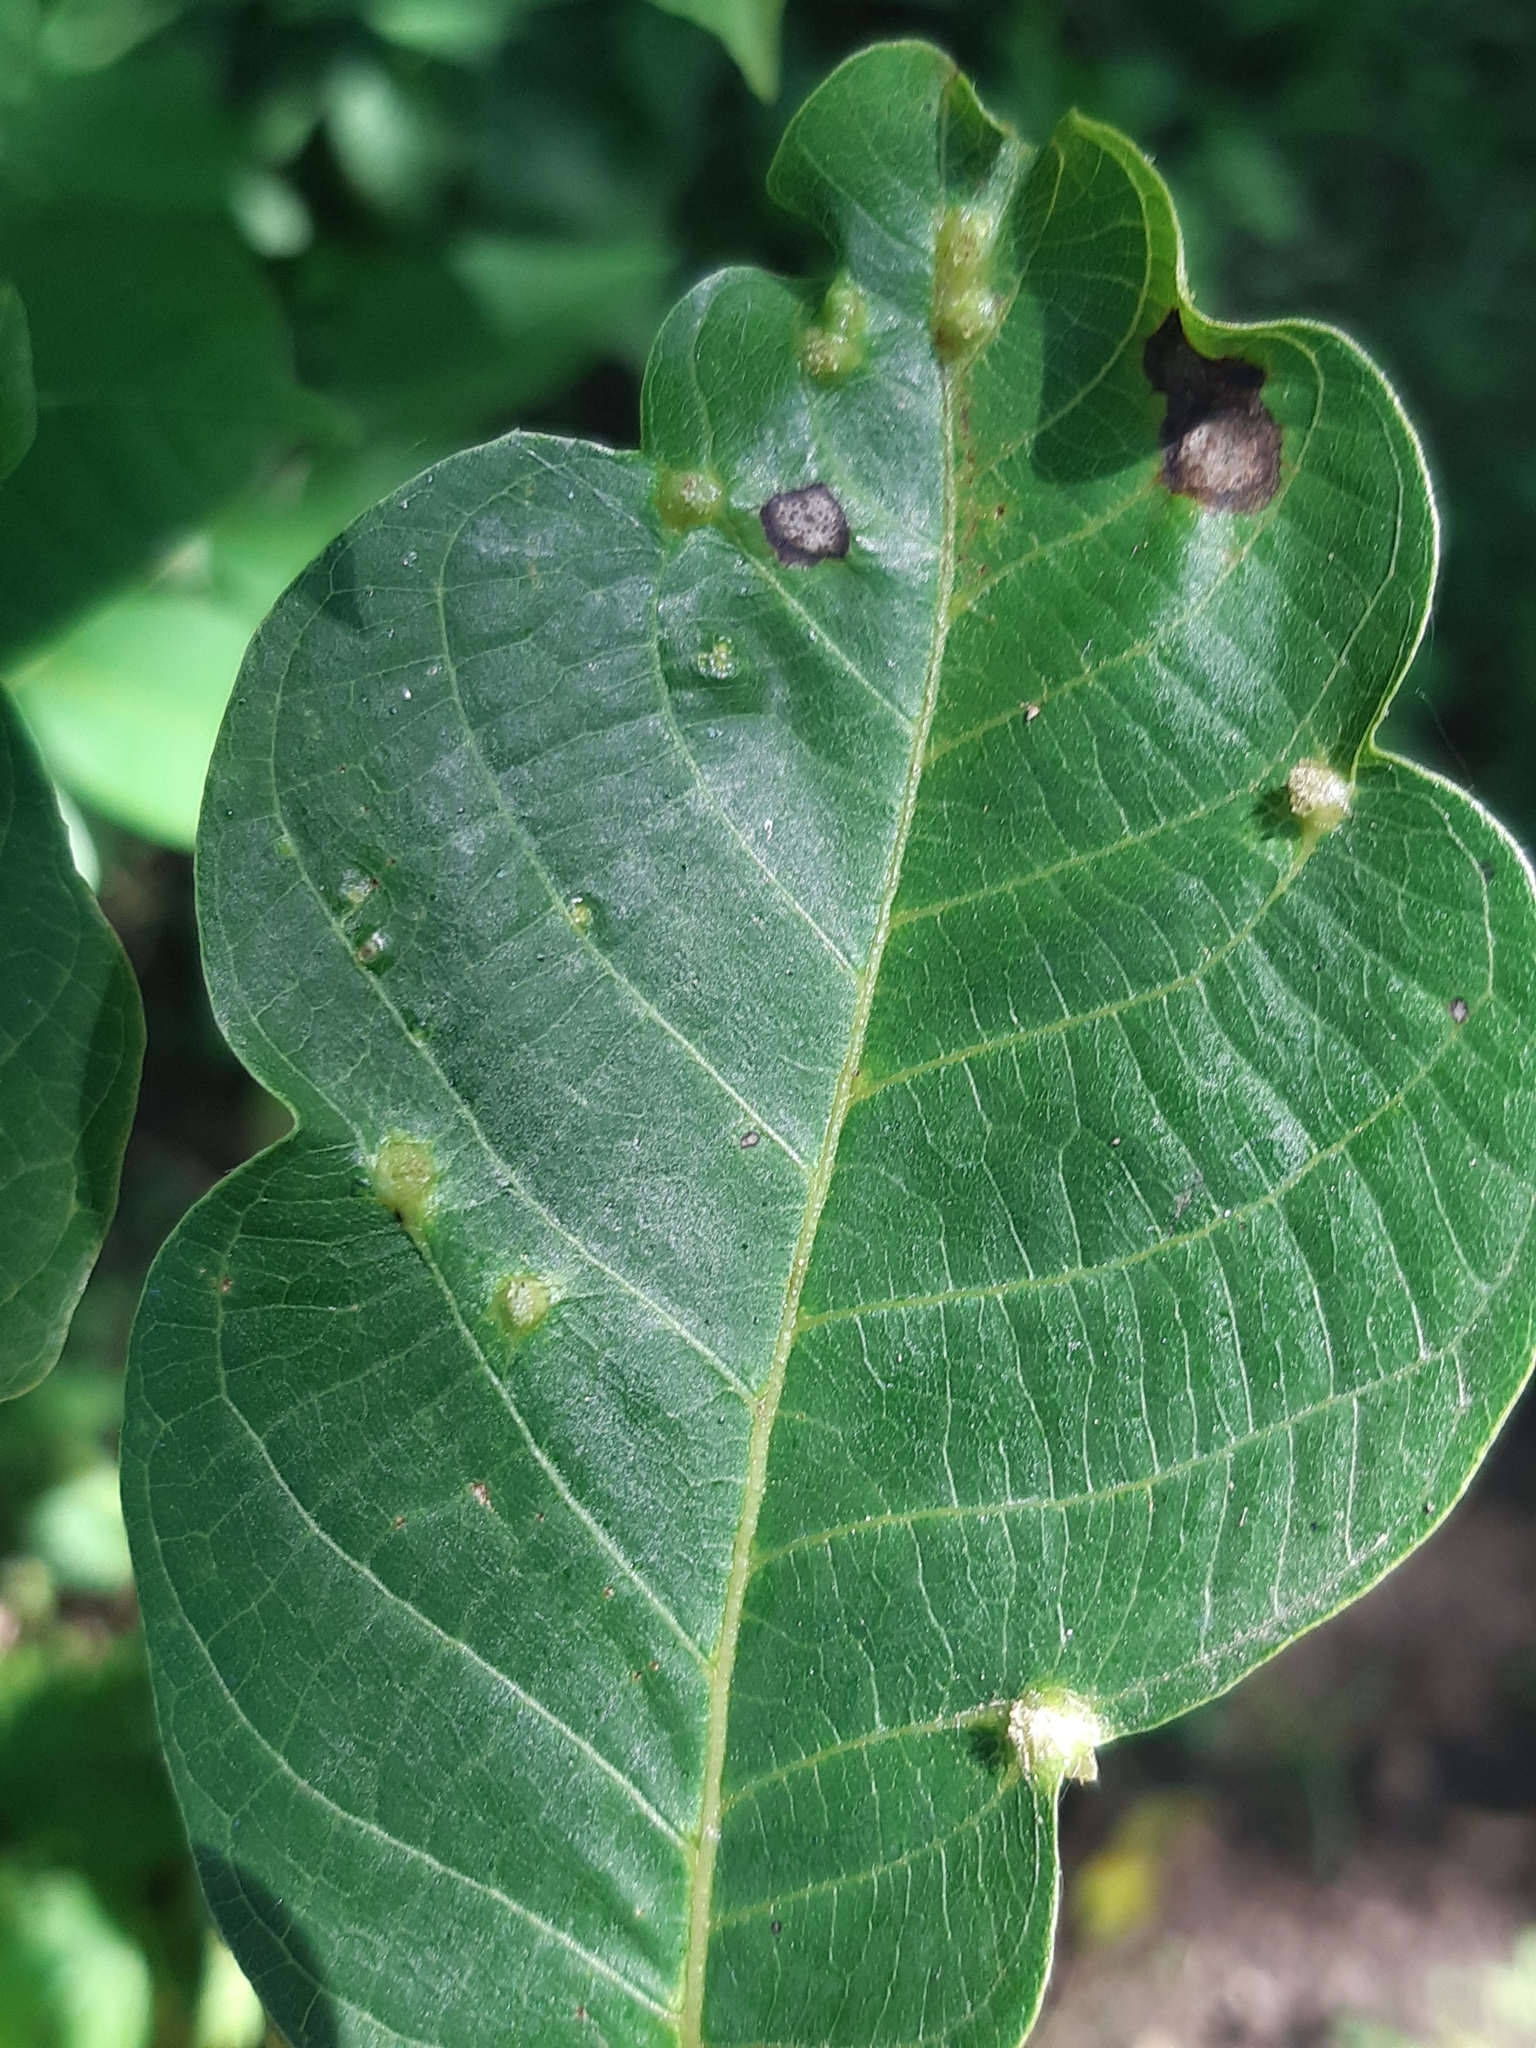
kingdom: Animalia
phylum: Arthropoda
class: Arachnida
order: Trombidiformes
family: Eriophyidae
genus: Aceria
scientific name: Aceria brachytarsus
